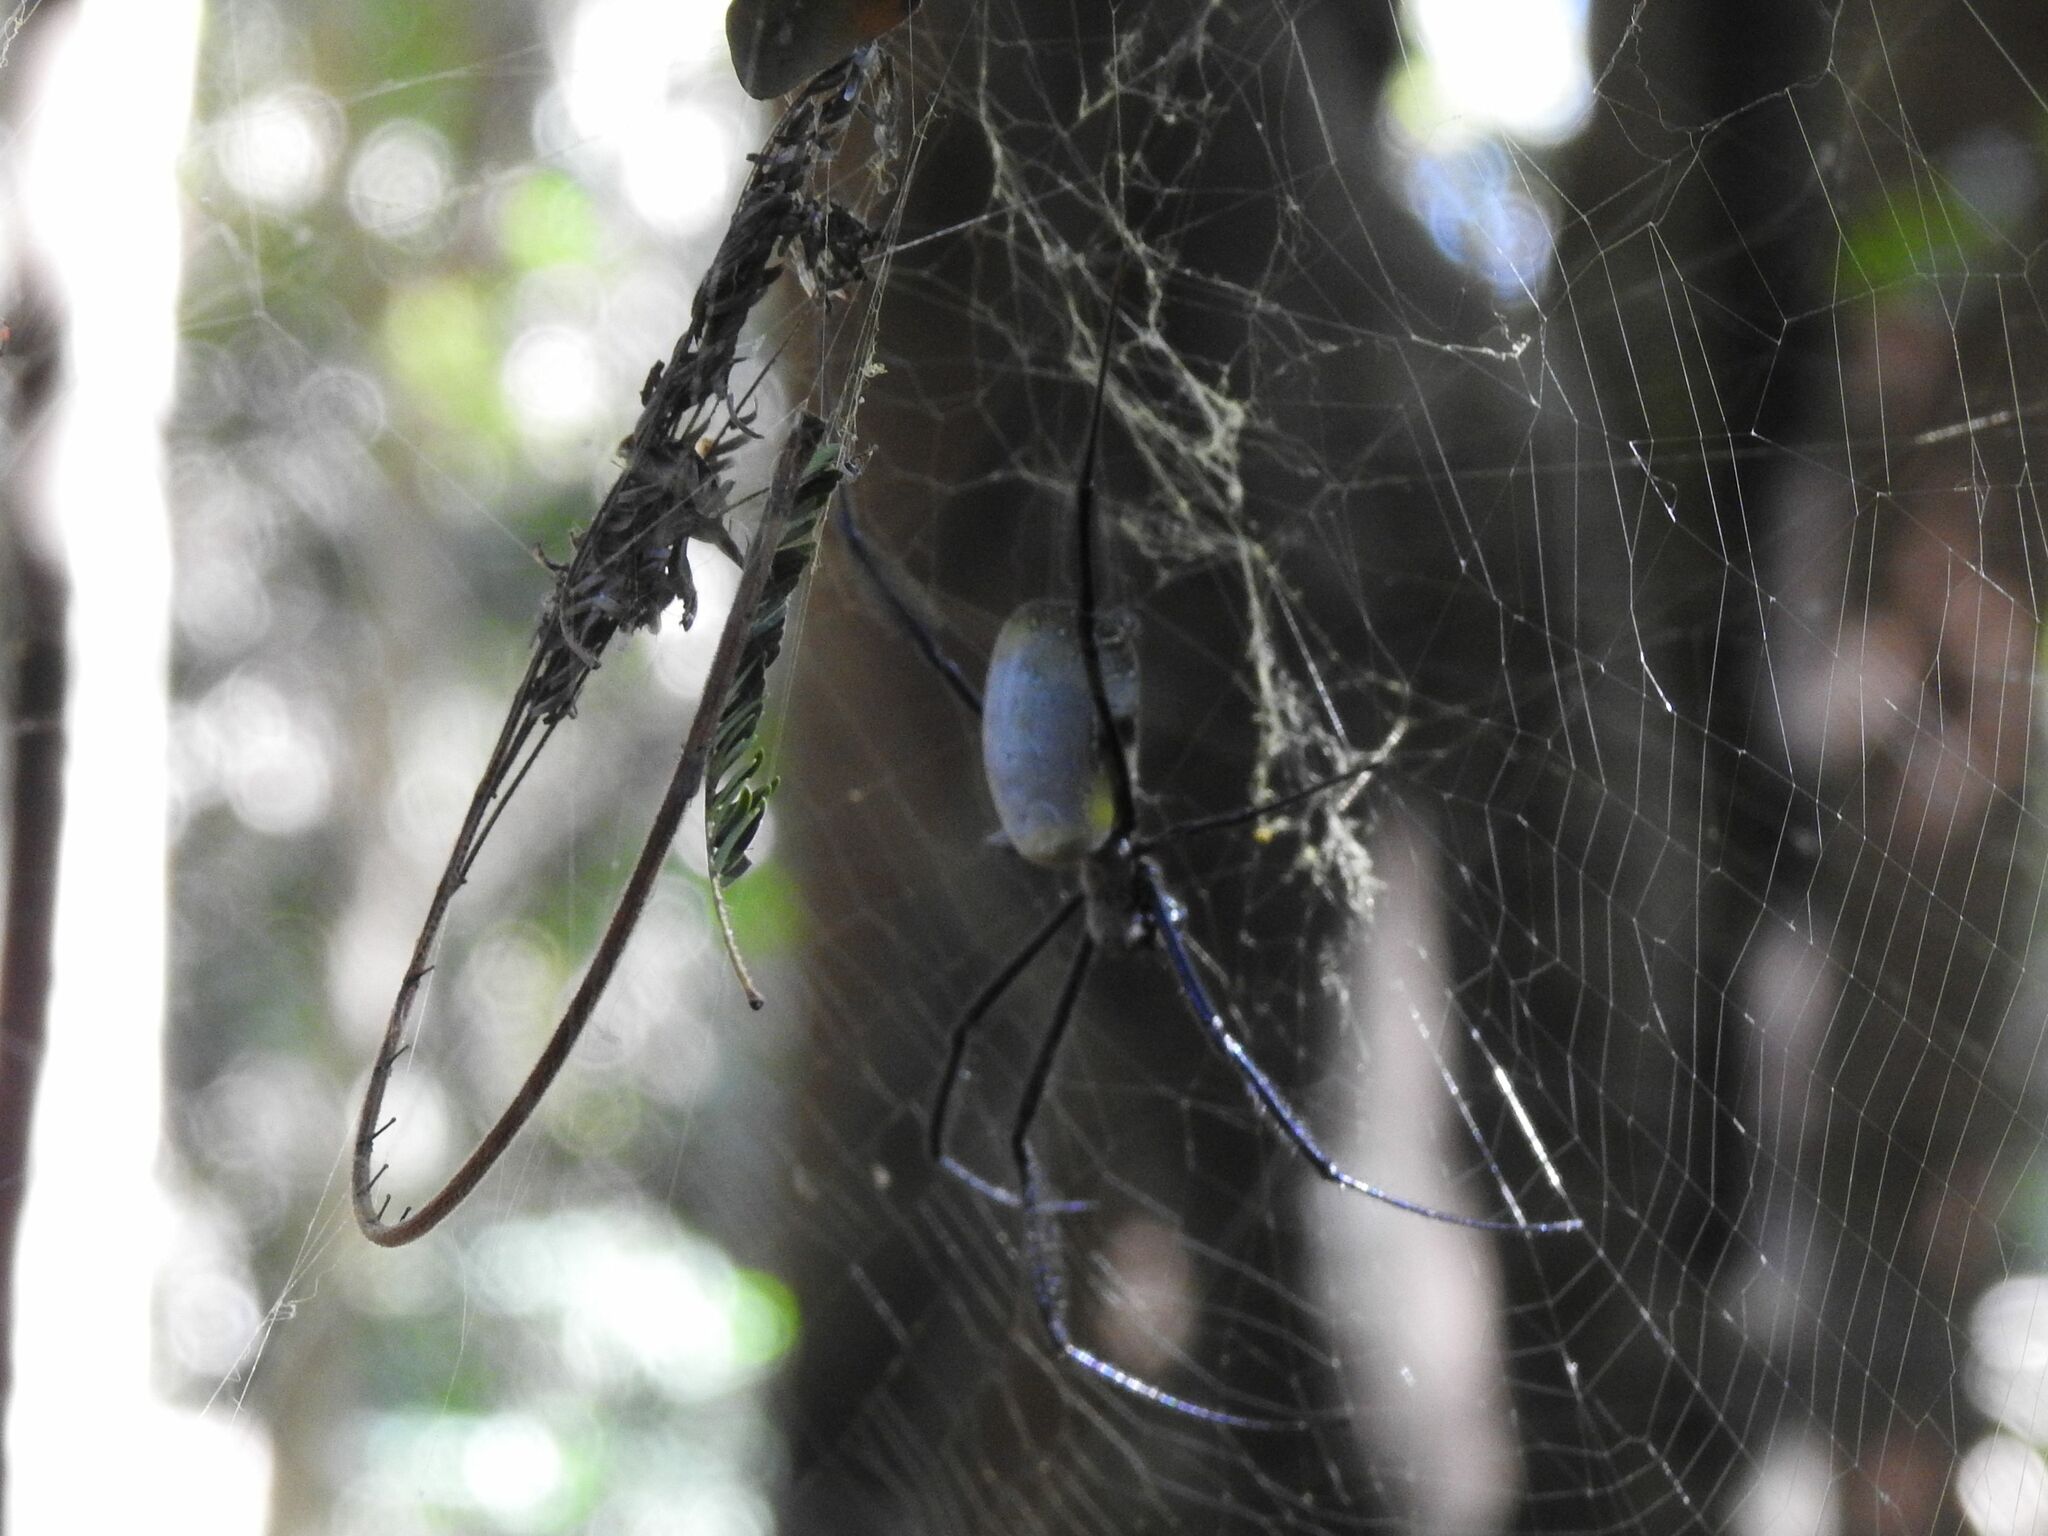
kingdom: Animalia
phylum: Arthropoda
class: Arachnida
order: Araneae
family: Araneidae
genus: Trichonephila
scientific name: Trichonephila fenestrata
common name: Hairy golden orb weaver
